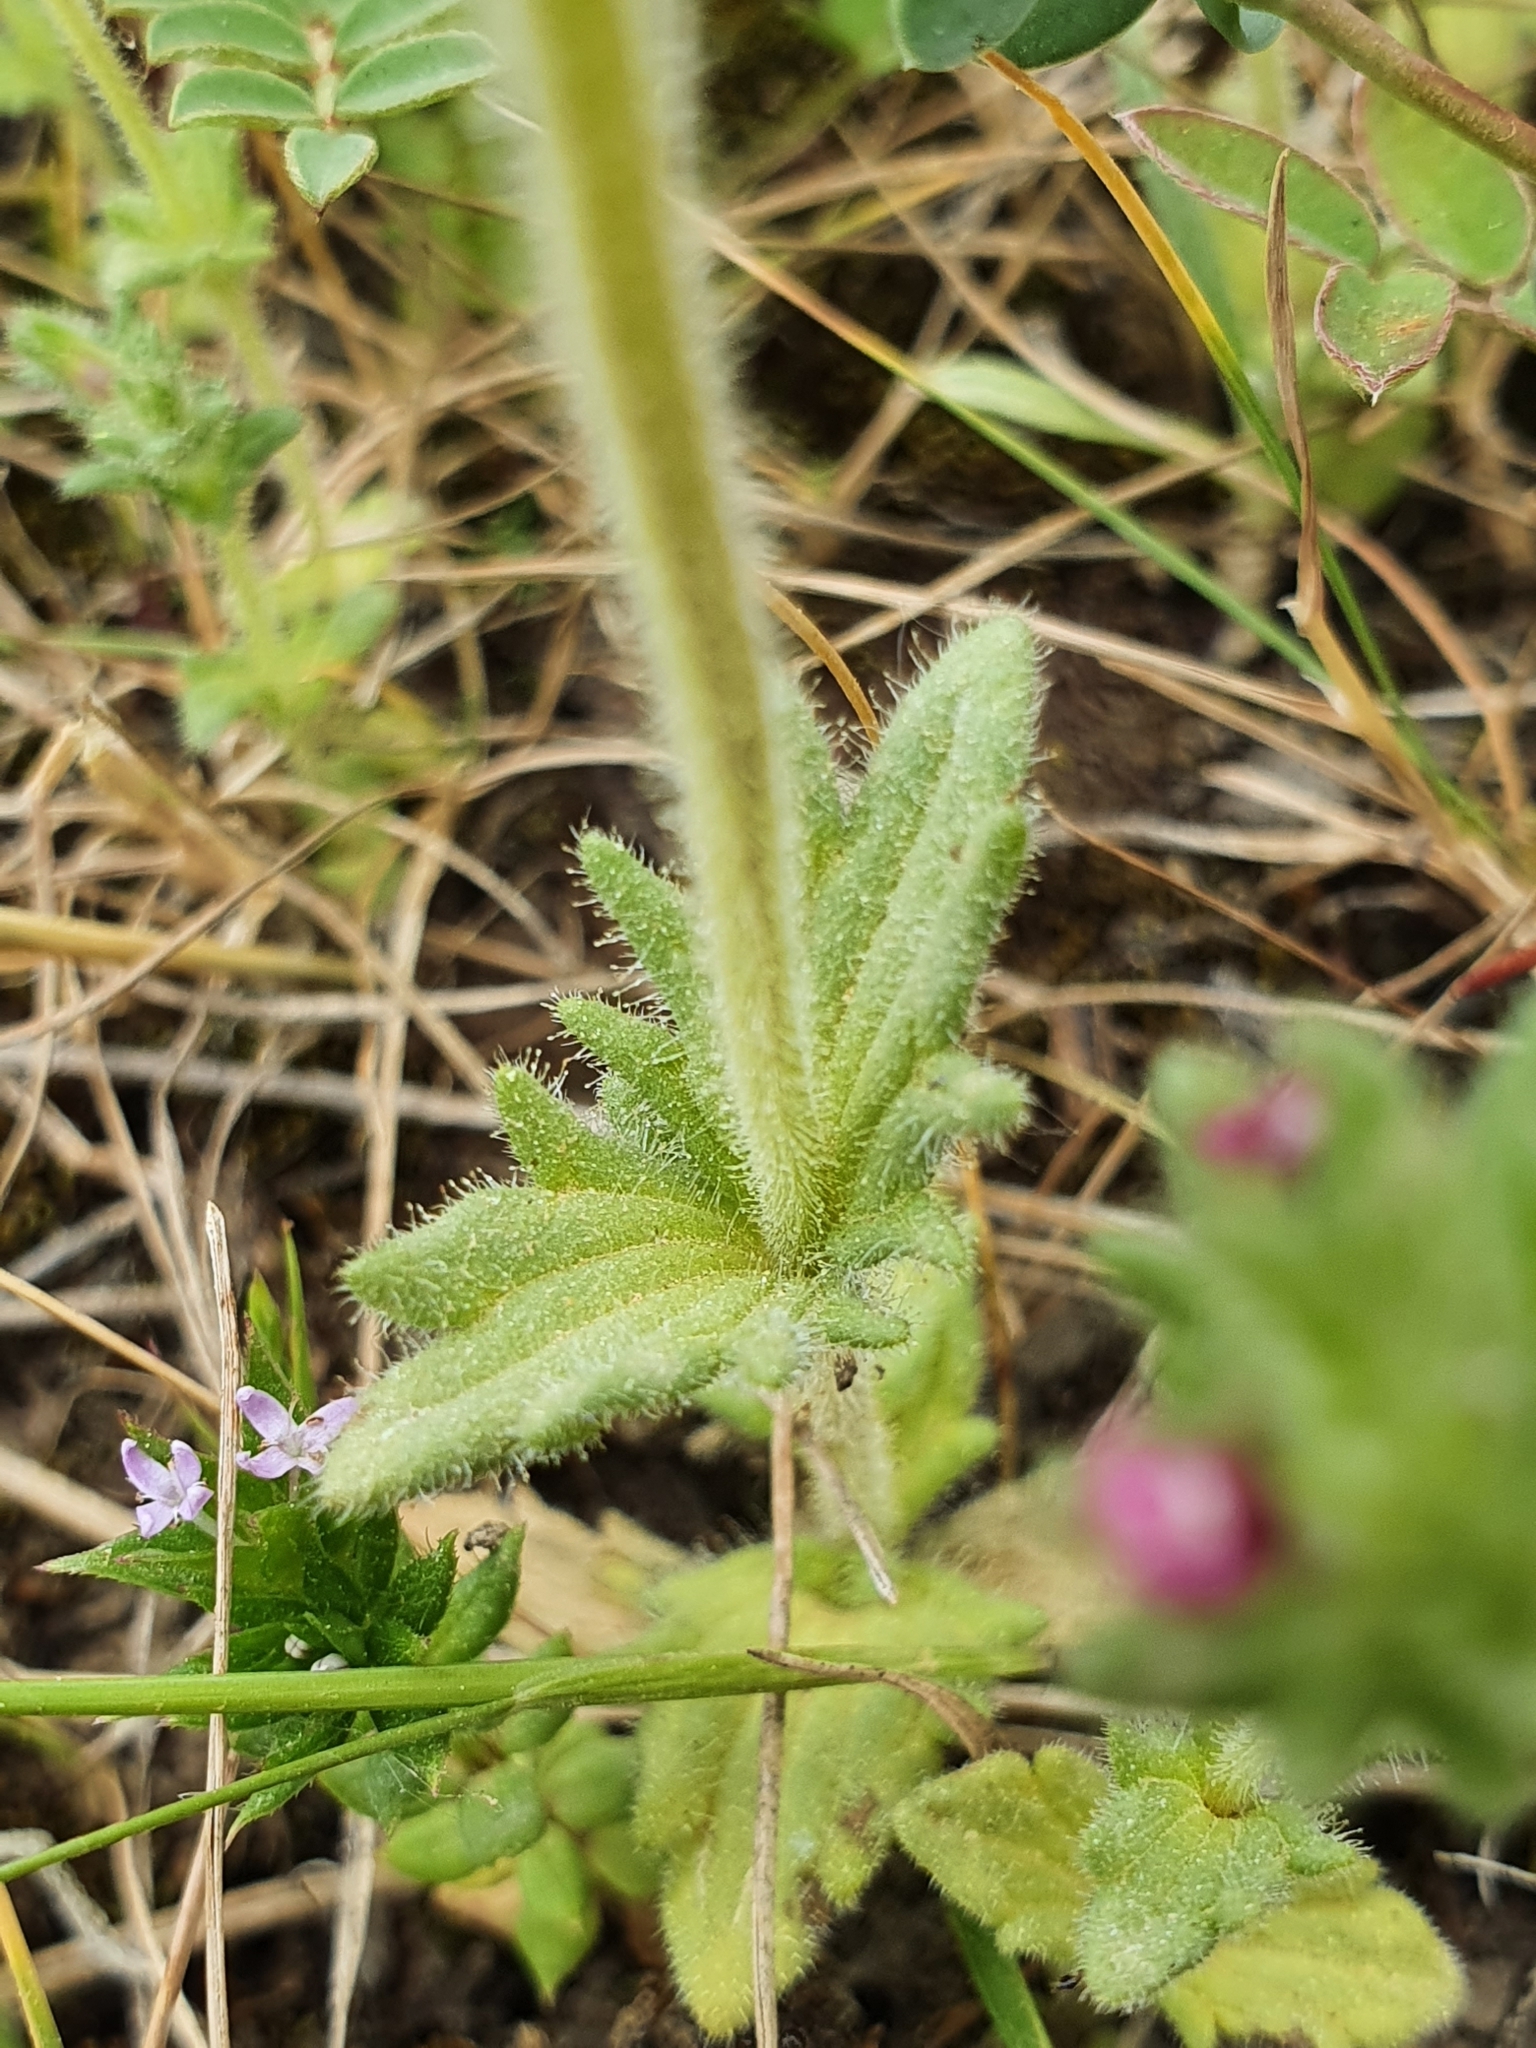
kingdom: Plantae
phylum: Tracheophyta
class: Magnoliopsida
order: Lamiales
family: Orobanchaceae
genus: Parentucellia
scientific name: Parentucellia latifolia
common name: Broadleaf glandweed
